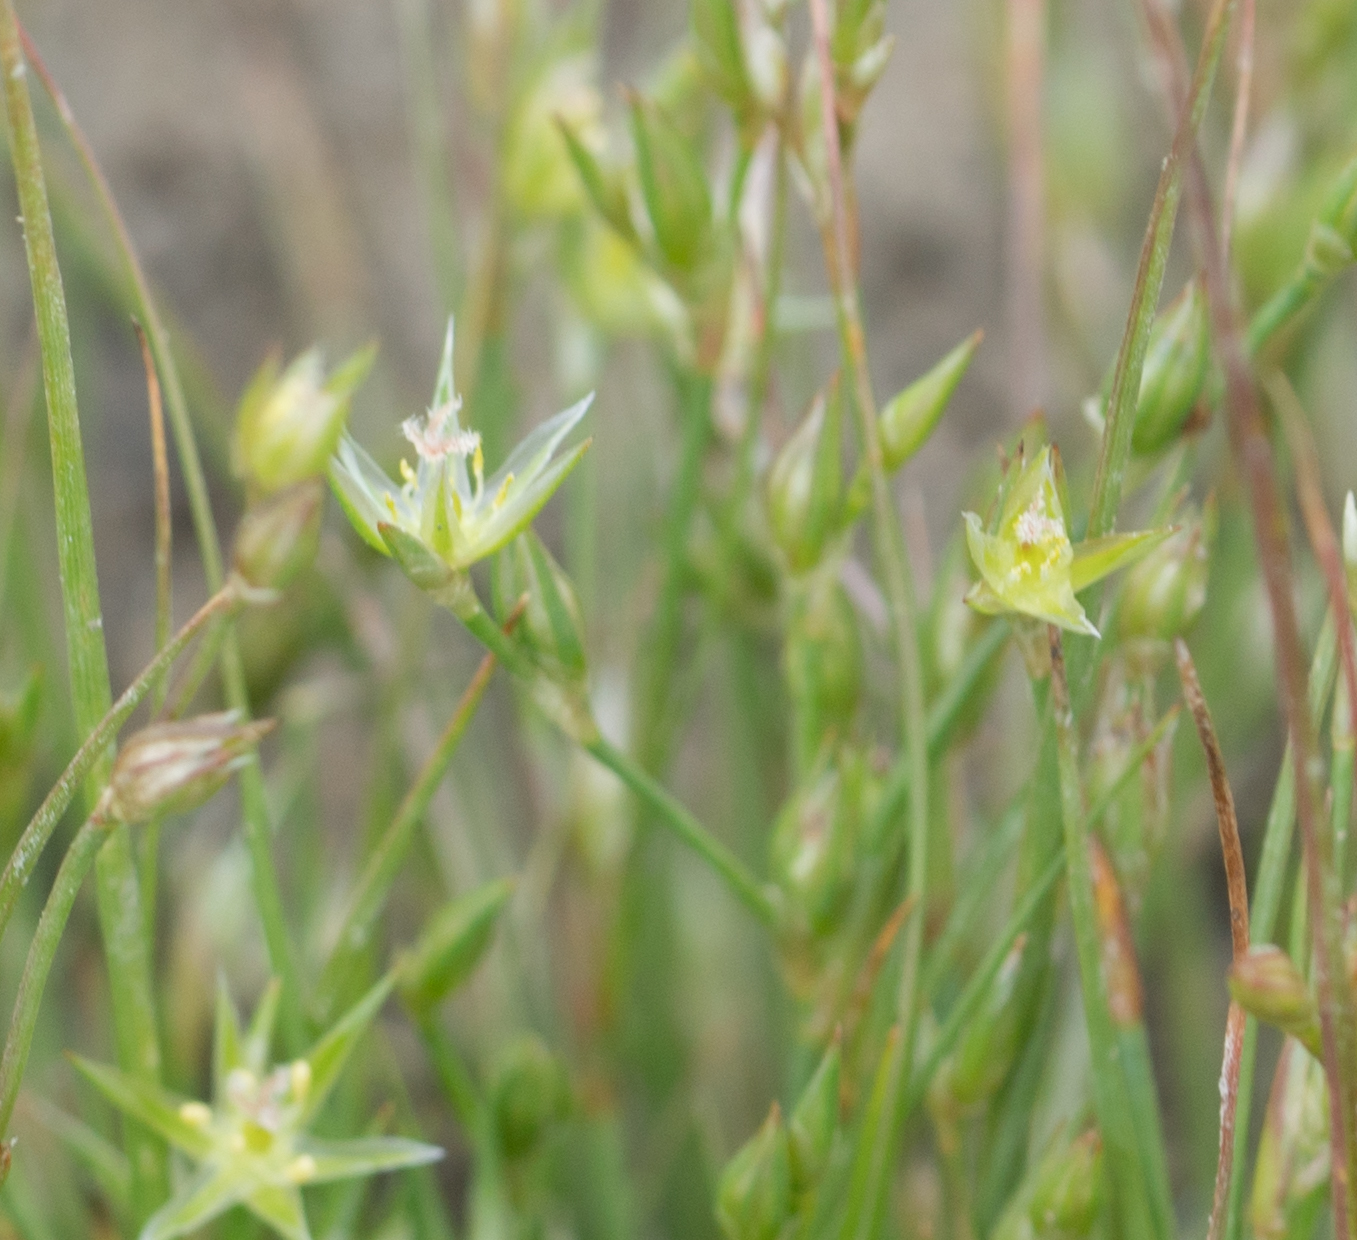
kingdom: Plantae
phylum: Tracheophyta
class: Liliopsida
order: Poales
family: Juncaceae
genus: Juncus
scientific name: Juncus bufonius
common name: Toad rush
